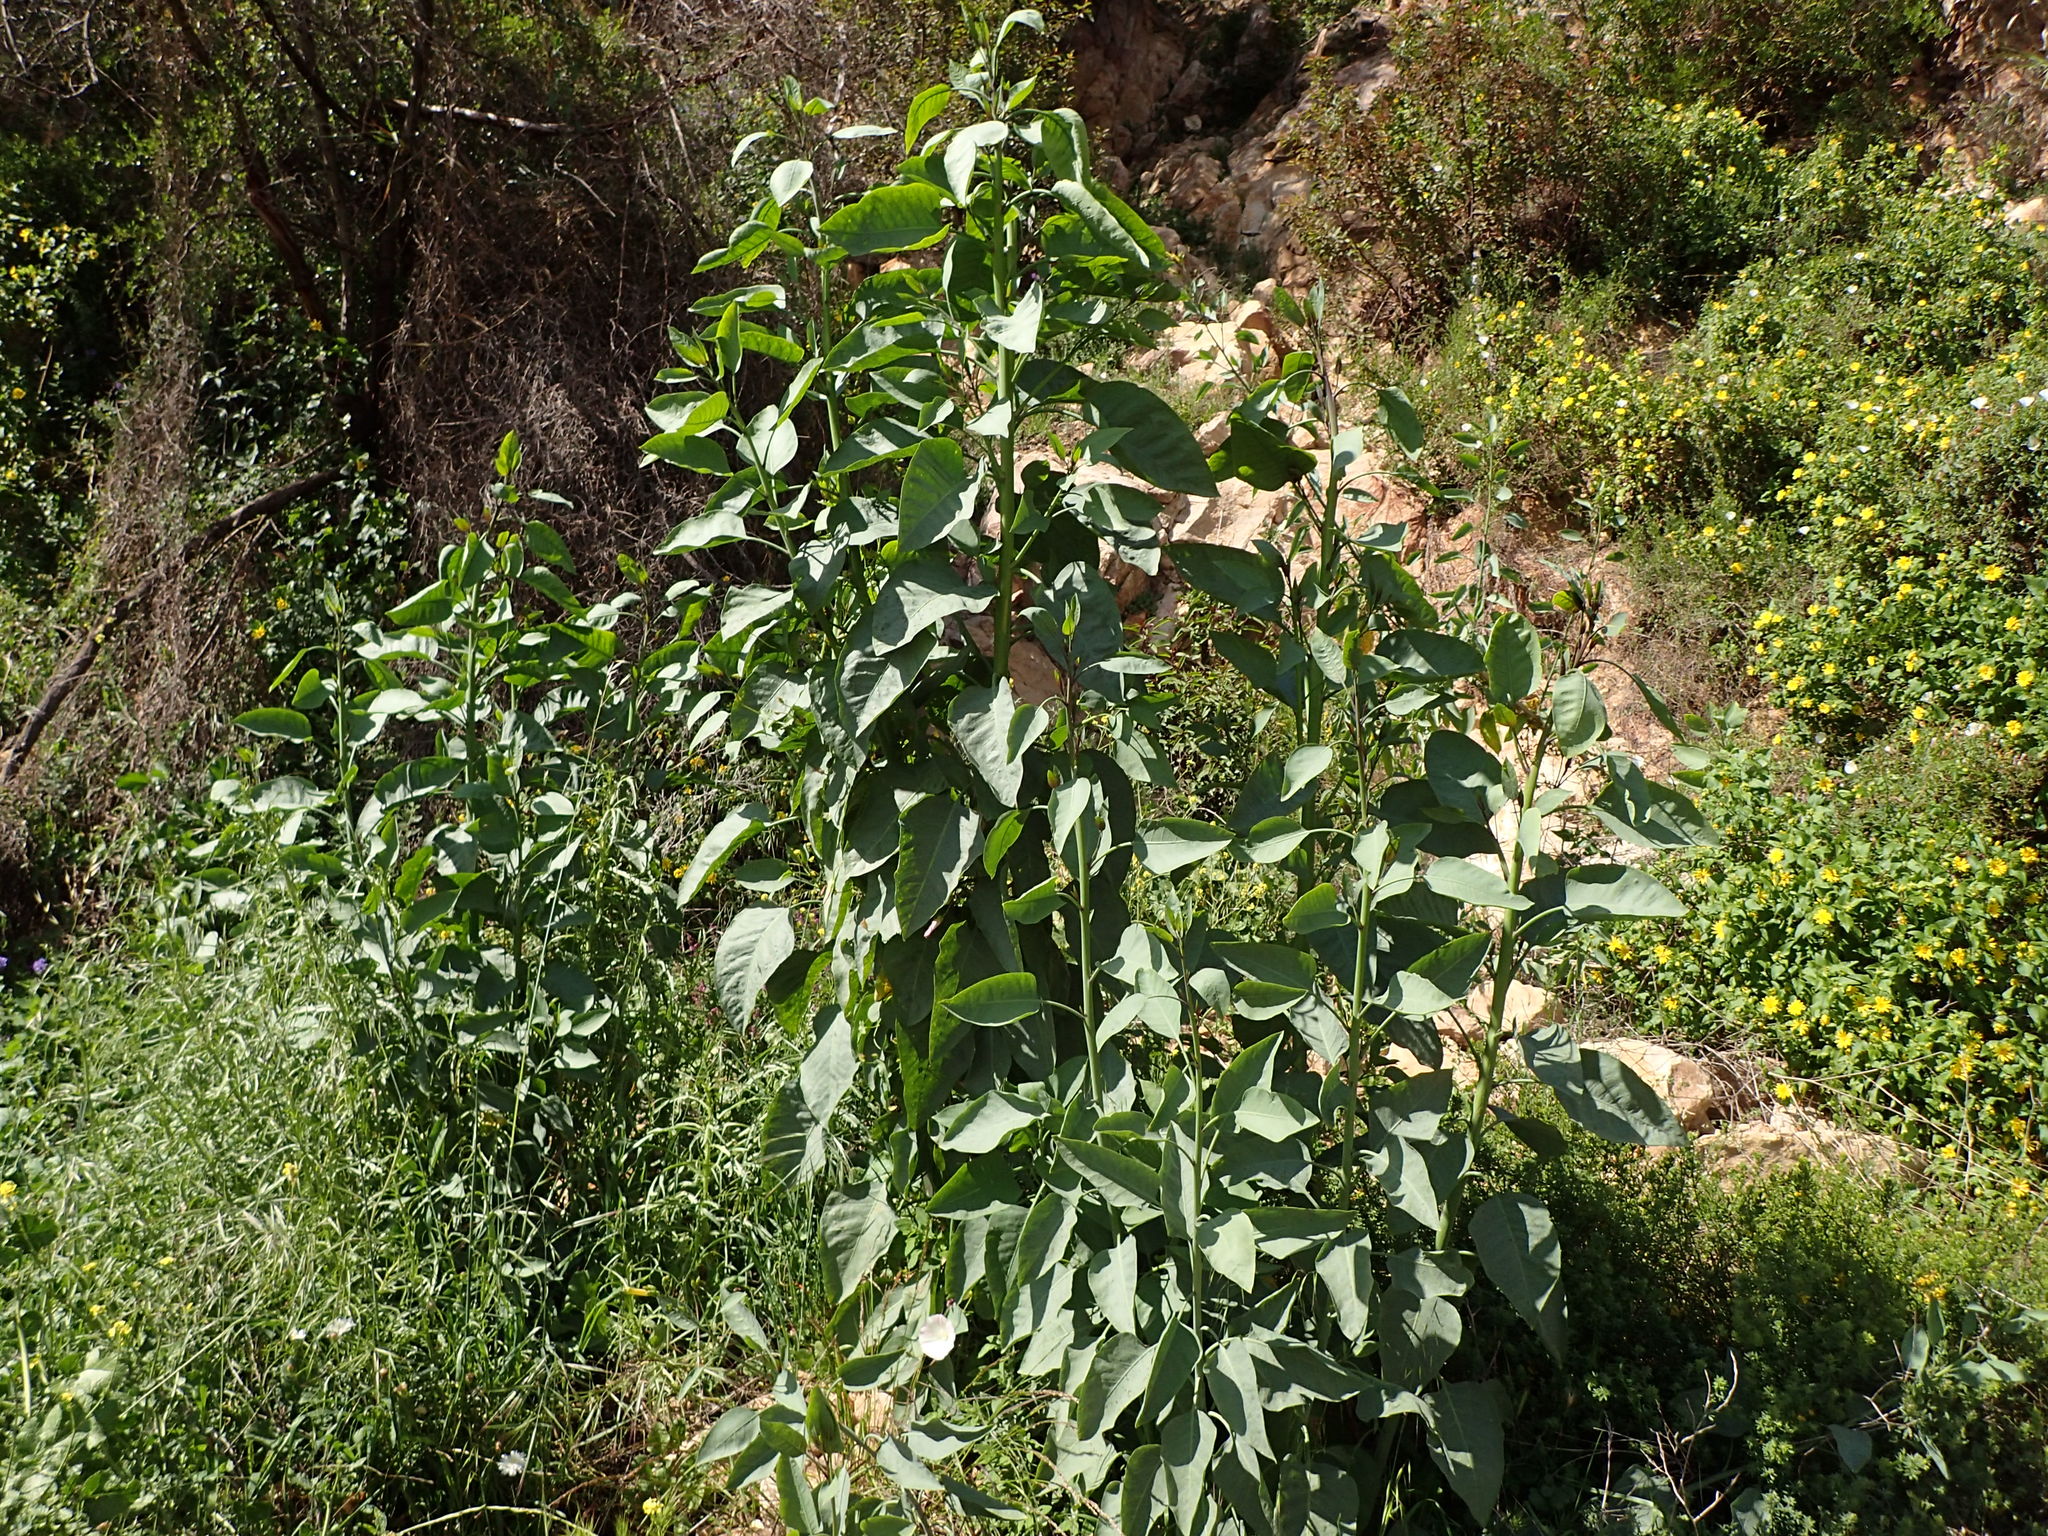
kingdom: Plantae
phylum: Tracheophyta
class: Magnoliopsida
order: Solanales
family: Solanaceae
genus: Nicotiana
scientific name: Nicotiana glauca
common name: Tree tobacco
